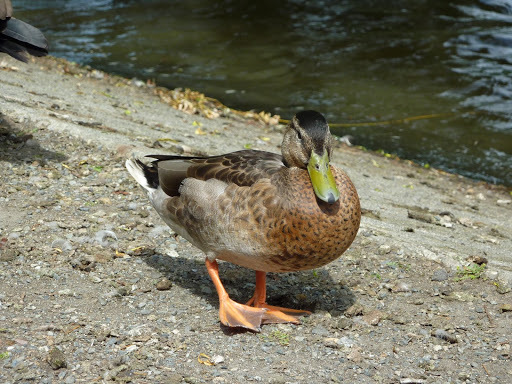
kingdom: Animalia
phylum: Chordata
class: Aves
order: Anseriformes
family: Anatidae
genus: Anas
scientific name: Anas platyrhynchos
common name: Mallard
